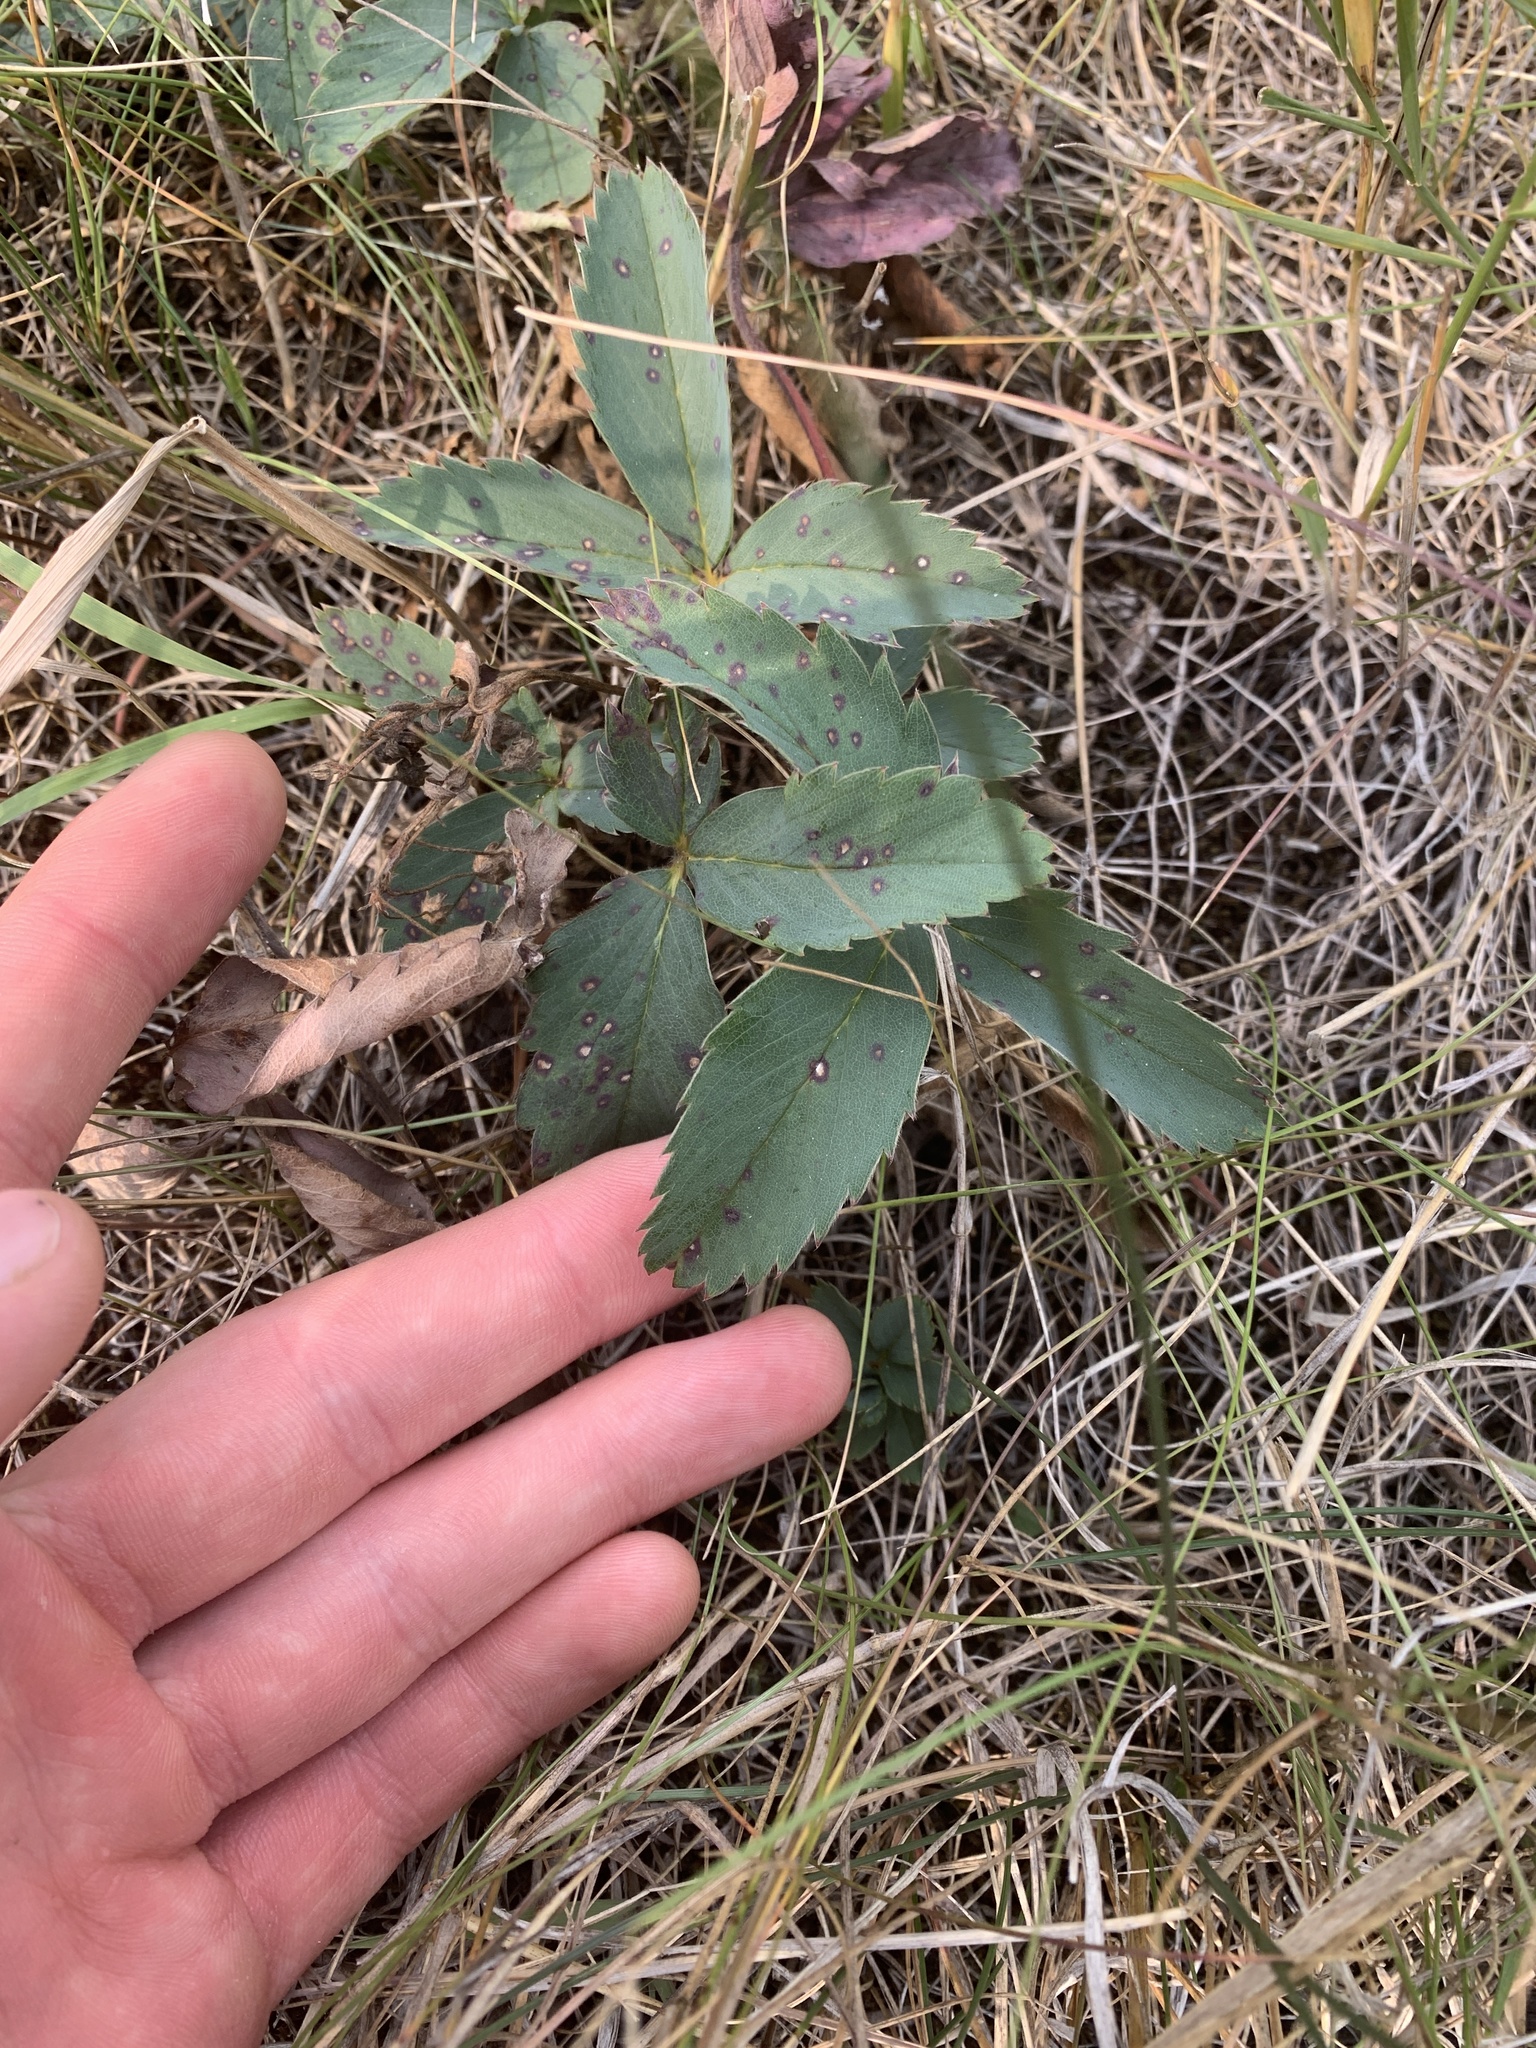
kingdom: Plantae
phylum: Tracheophyta
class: Magnoliopsida
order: Rosales
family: Rosaceae
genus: Fragaria
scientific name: Fragaria virginiana
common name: Thickleaved wild strawberry
